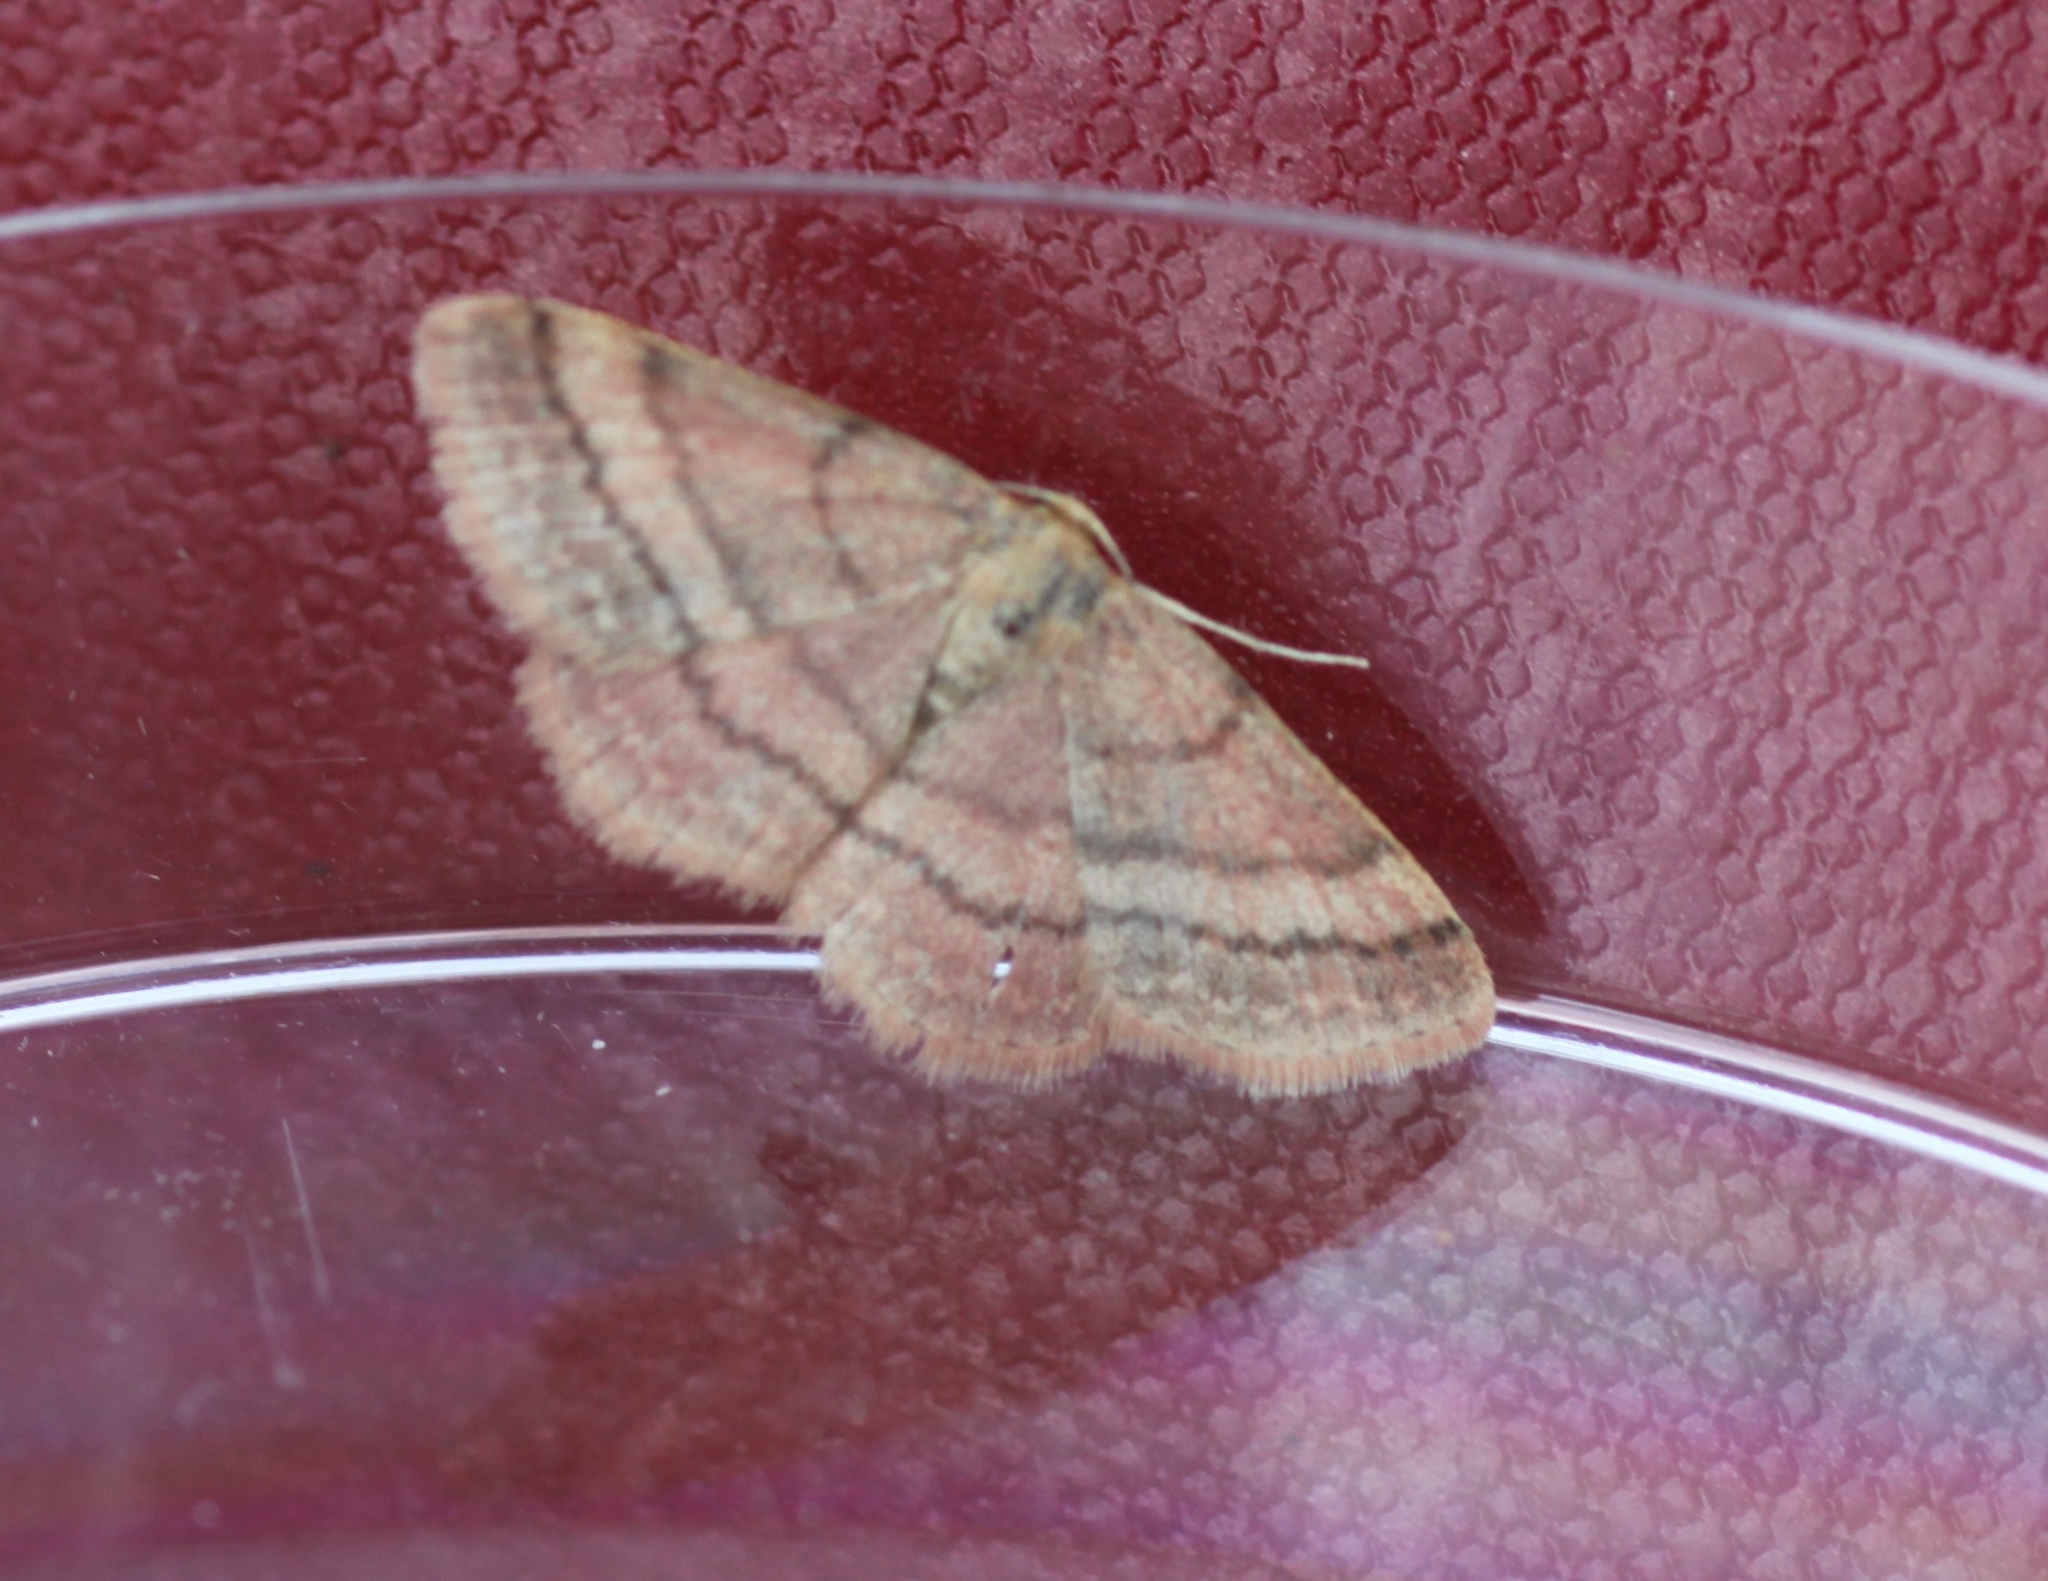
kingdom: Animalia
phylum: Arthropoda
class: Insecta
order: Lepidoptera
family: Geometridae
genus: Scopula
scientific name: Scopula rubiginata
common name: Tawny wave
